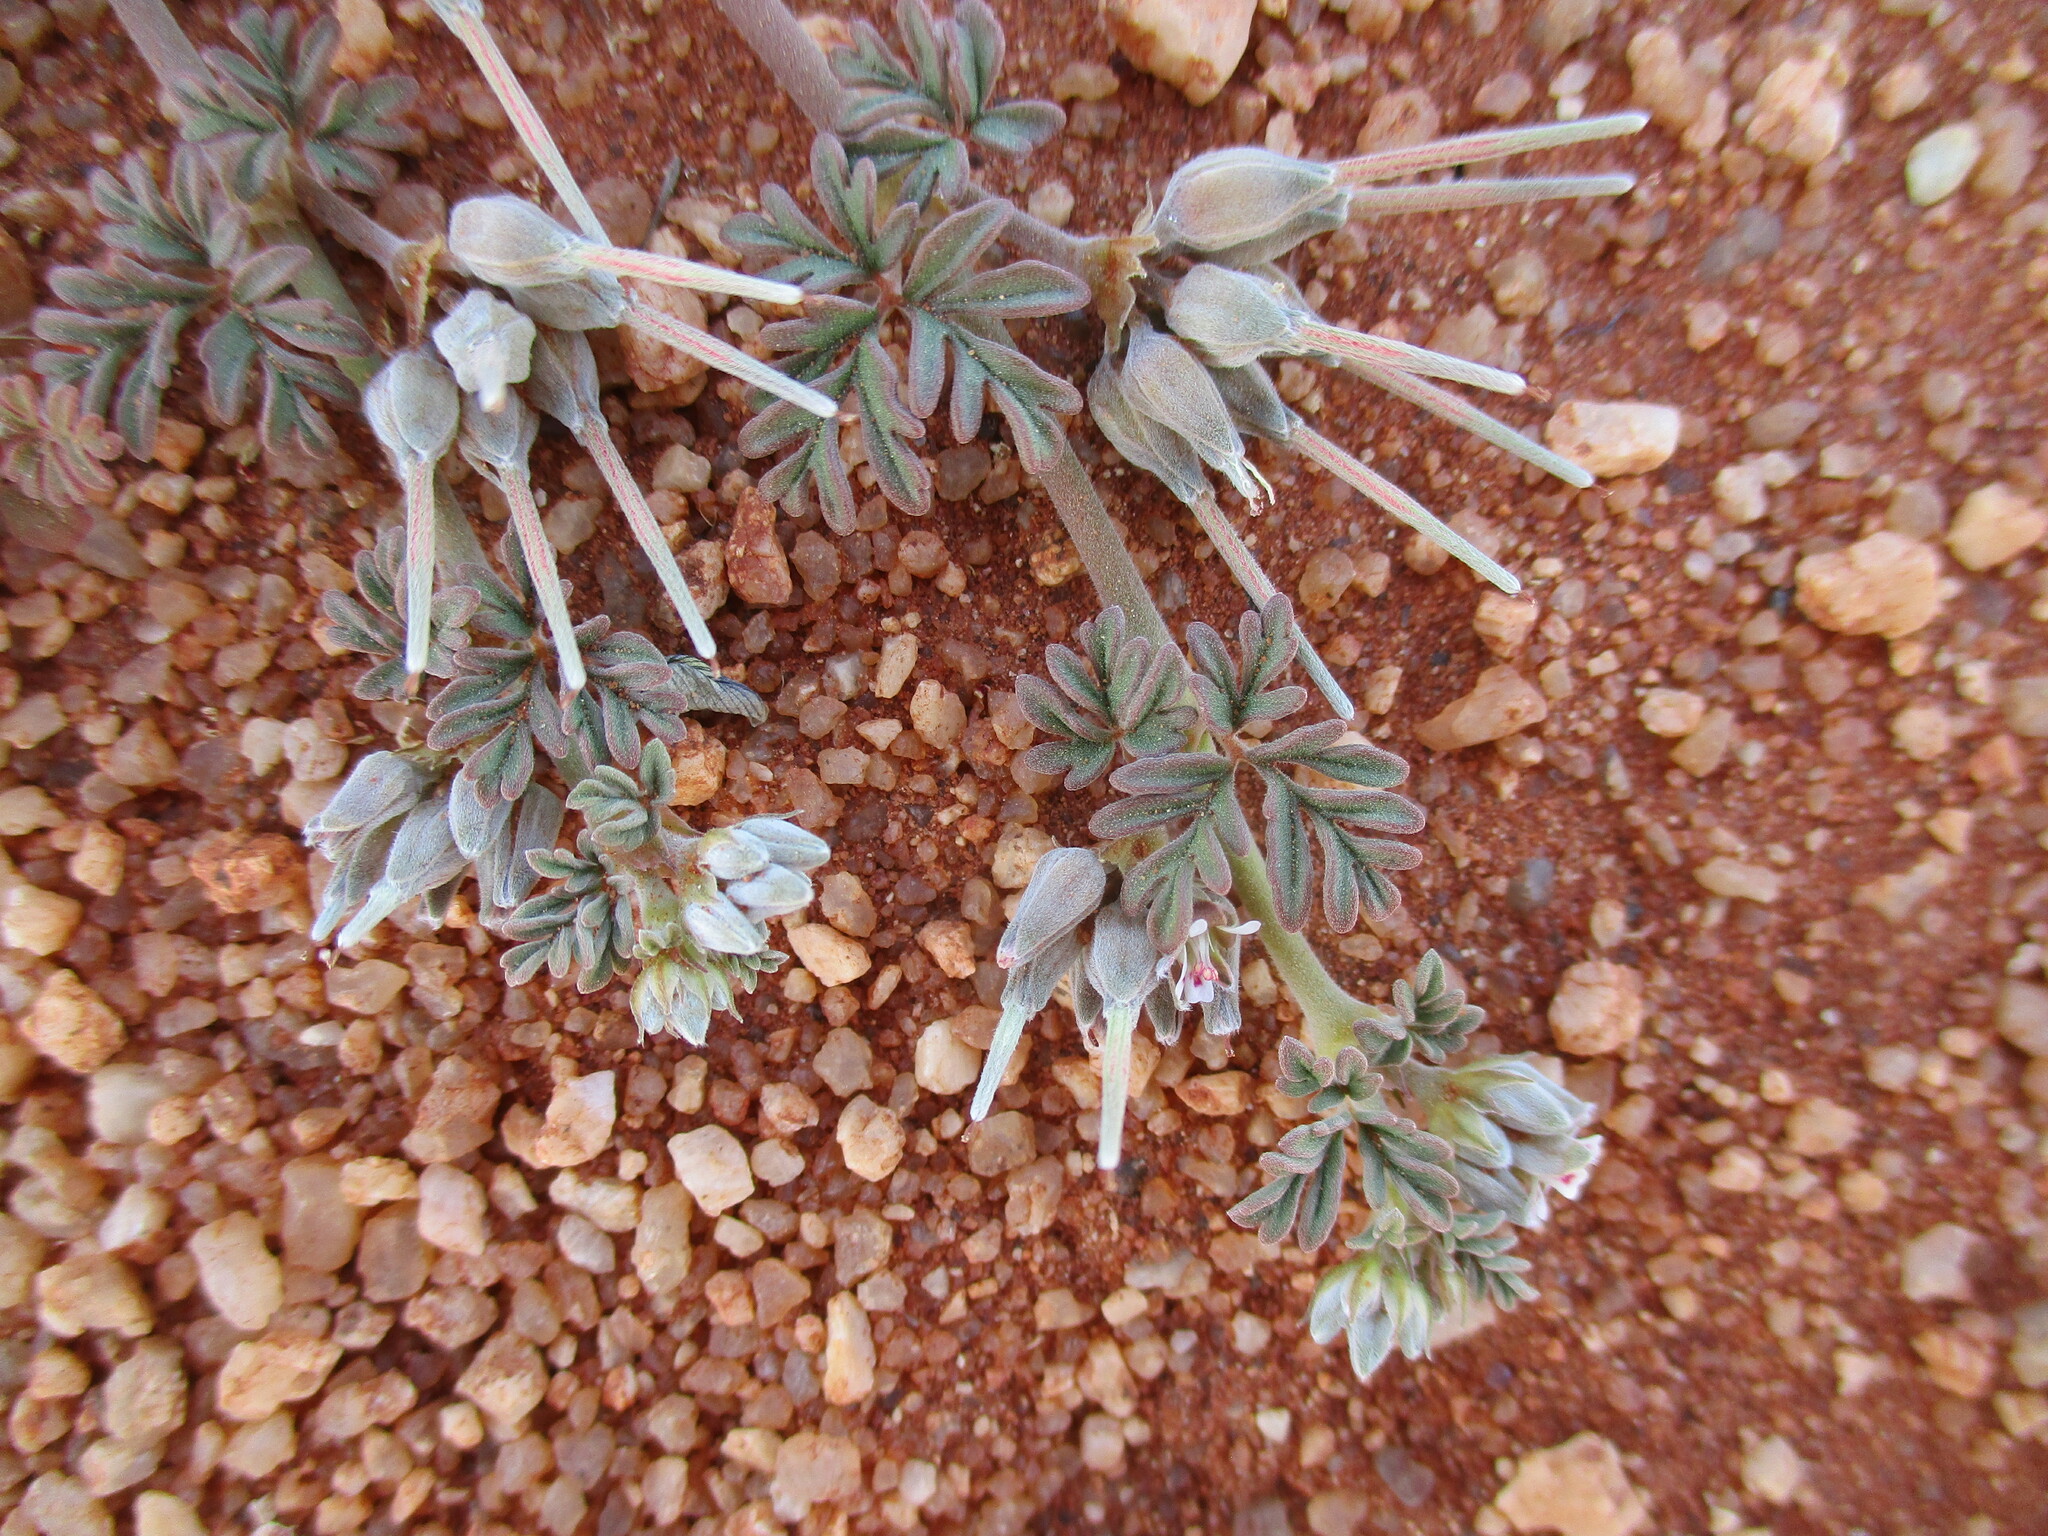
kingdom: Plantae
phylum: Tracheophyta
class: Magnoliopsida
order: Geraniales
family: Geraniaceae
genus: Pelargonium
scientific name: Pelargonium nanum
